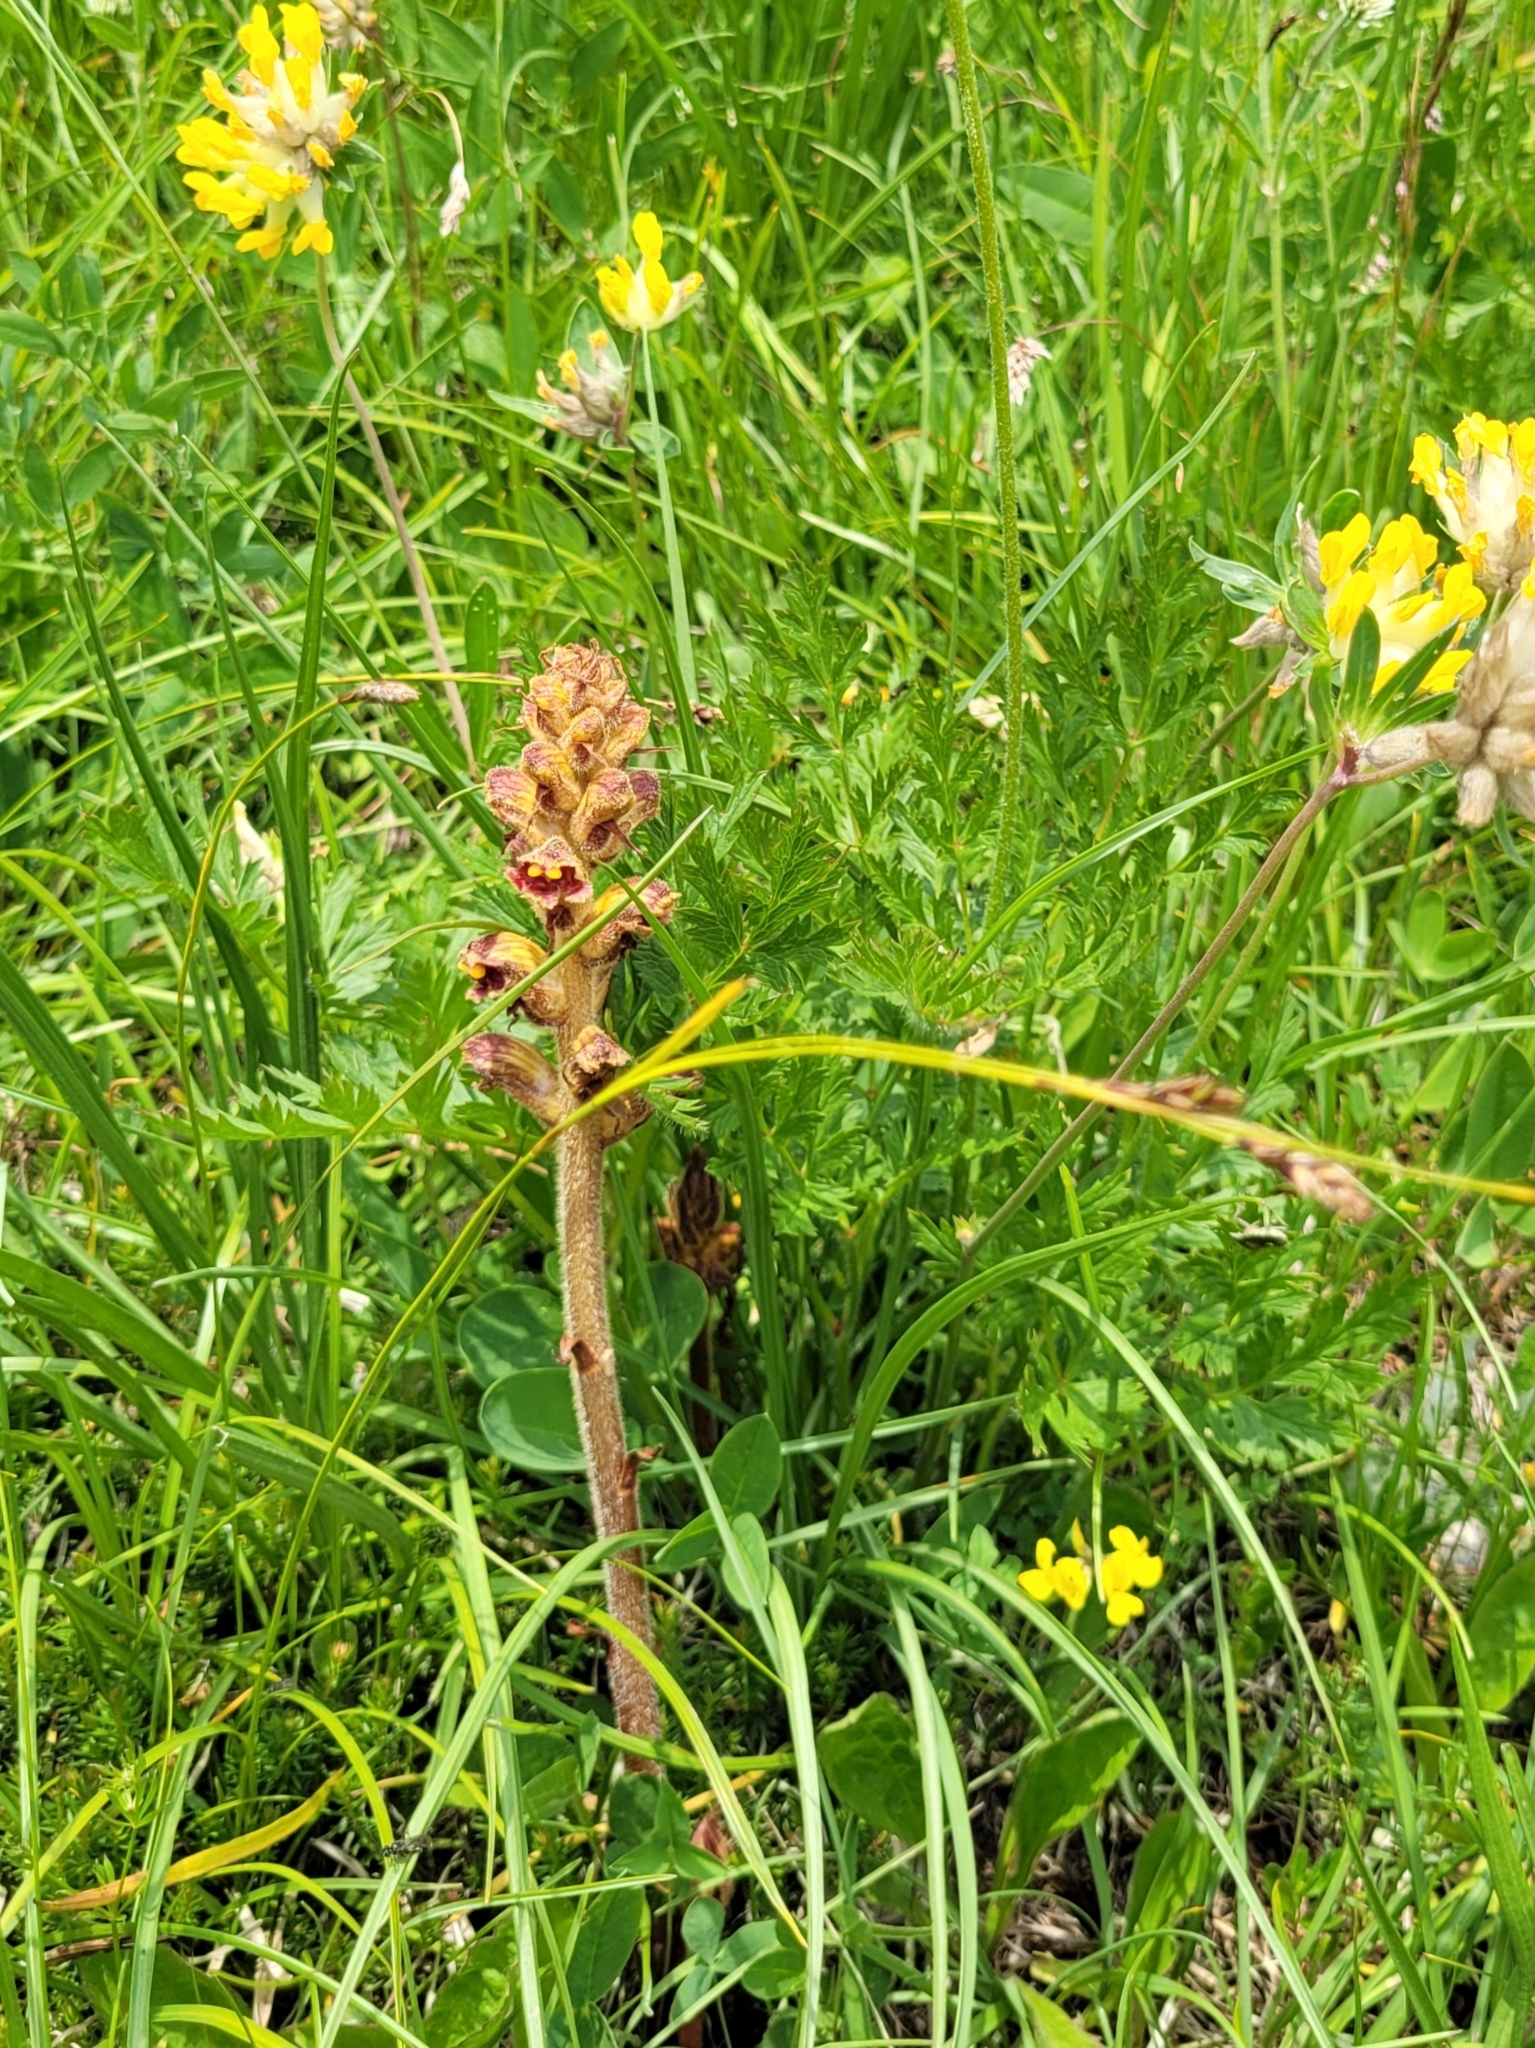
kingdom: Plantae
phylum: Tracheophyta
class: Magnoliopsida
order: Lamiales
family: Orobanchaceae
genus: Orobanche
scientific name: Orobanche gracilis
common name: Slender broomrape
